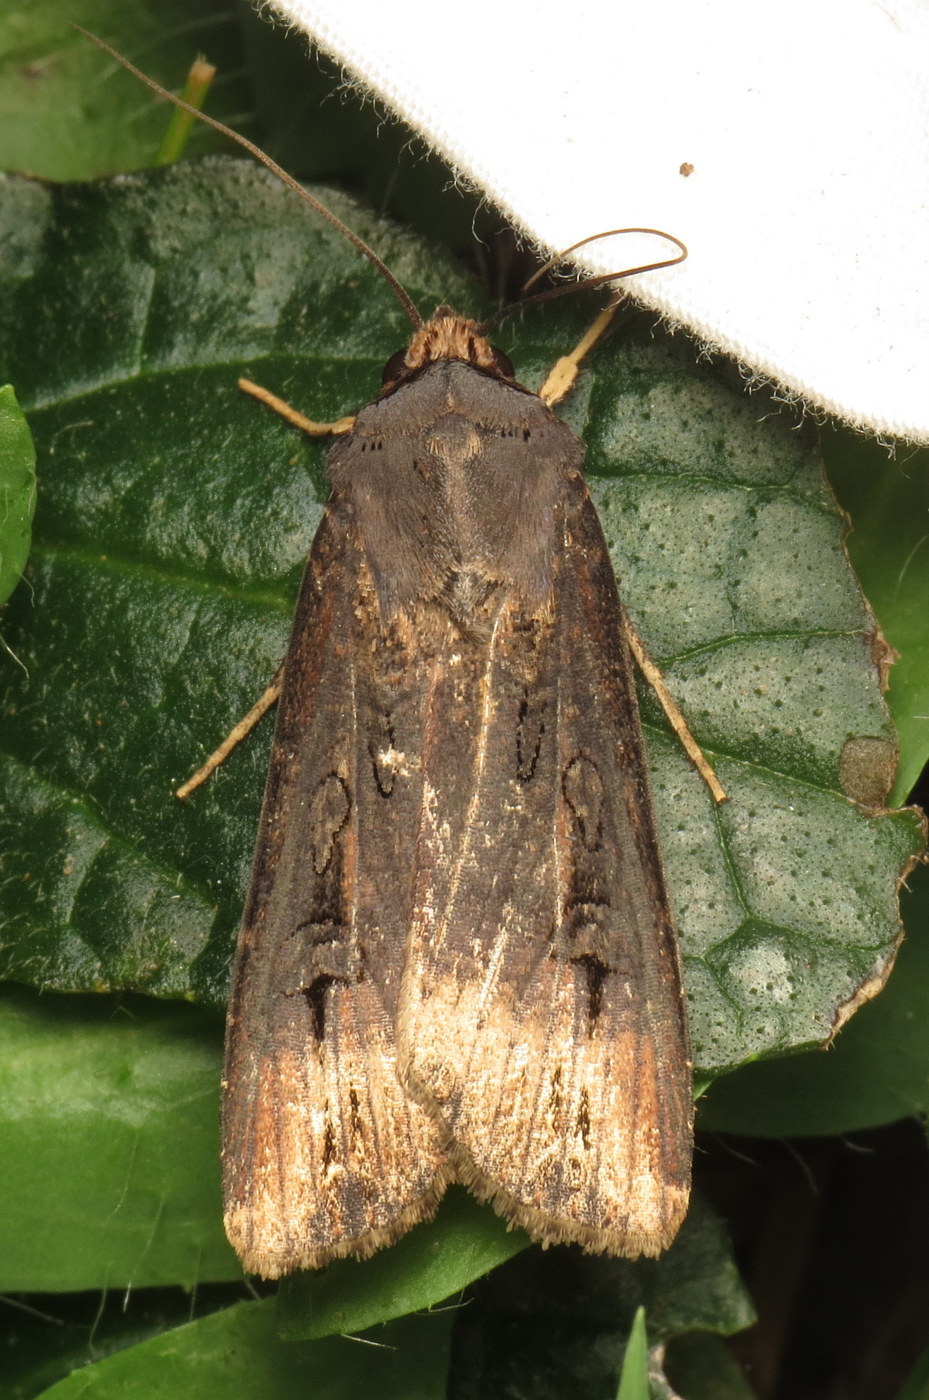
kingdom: Animalia
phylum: Arthropoda
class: Insecta
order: Lepidoptera
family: Noctuidae
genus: Agrotis
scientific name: Agrotis ipsilon
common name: Dark sword-grass
